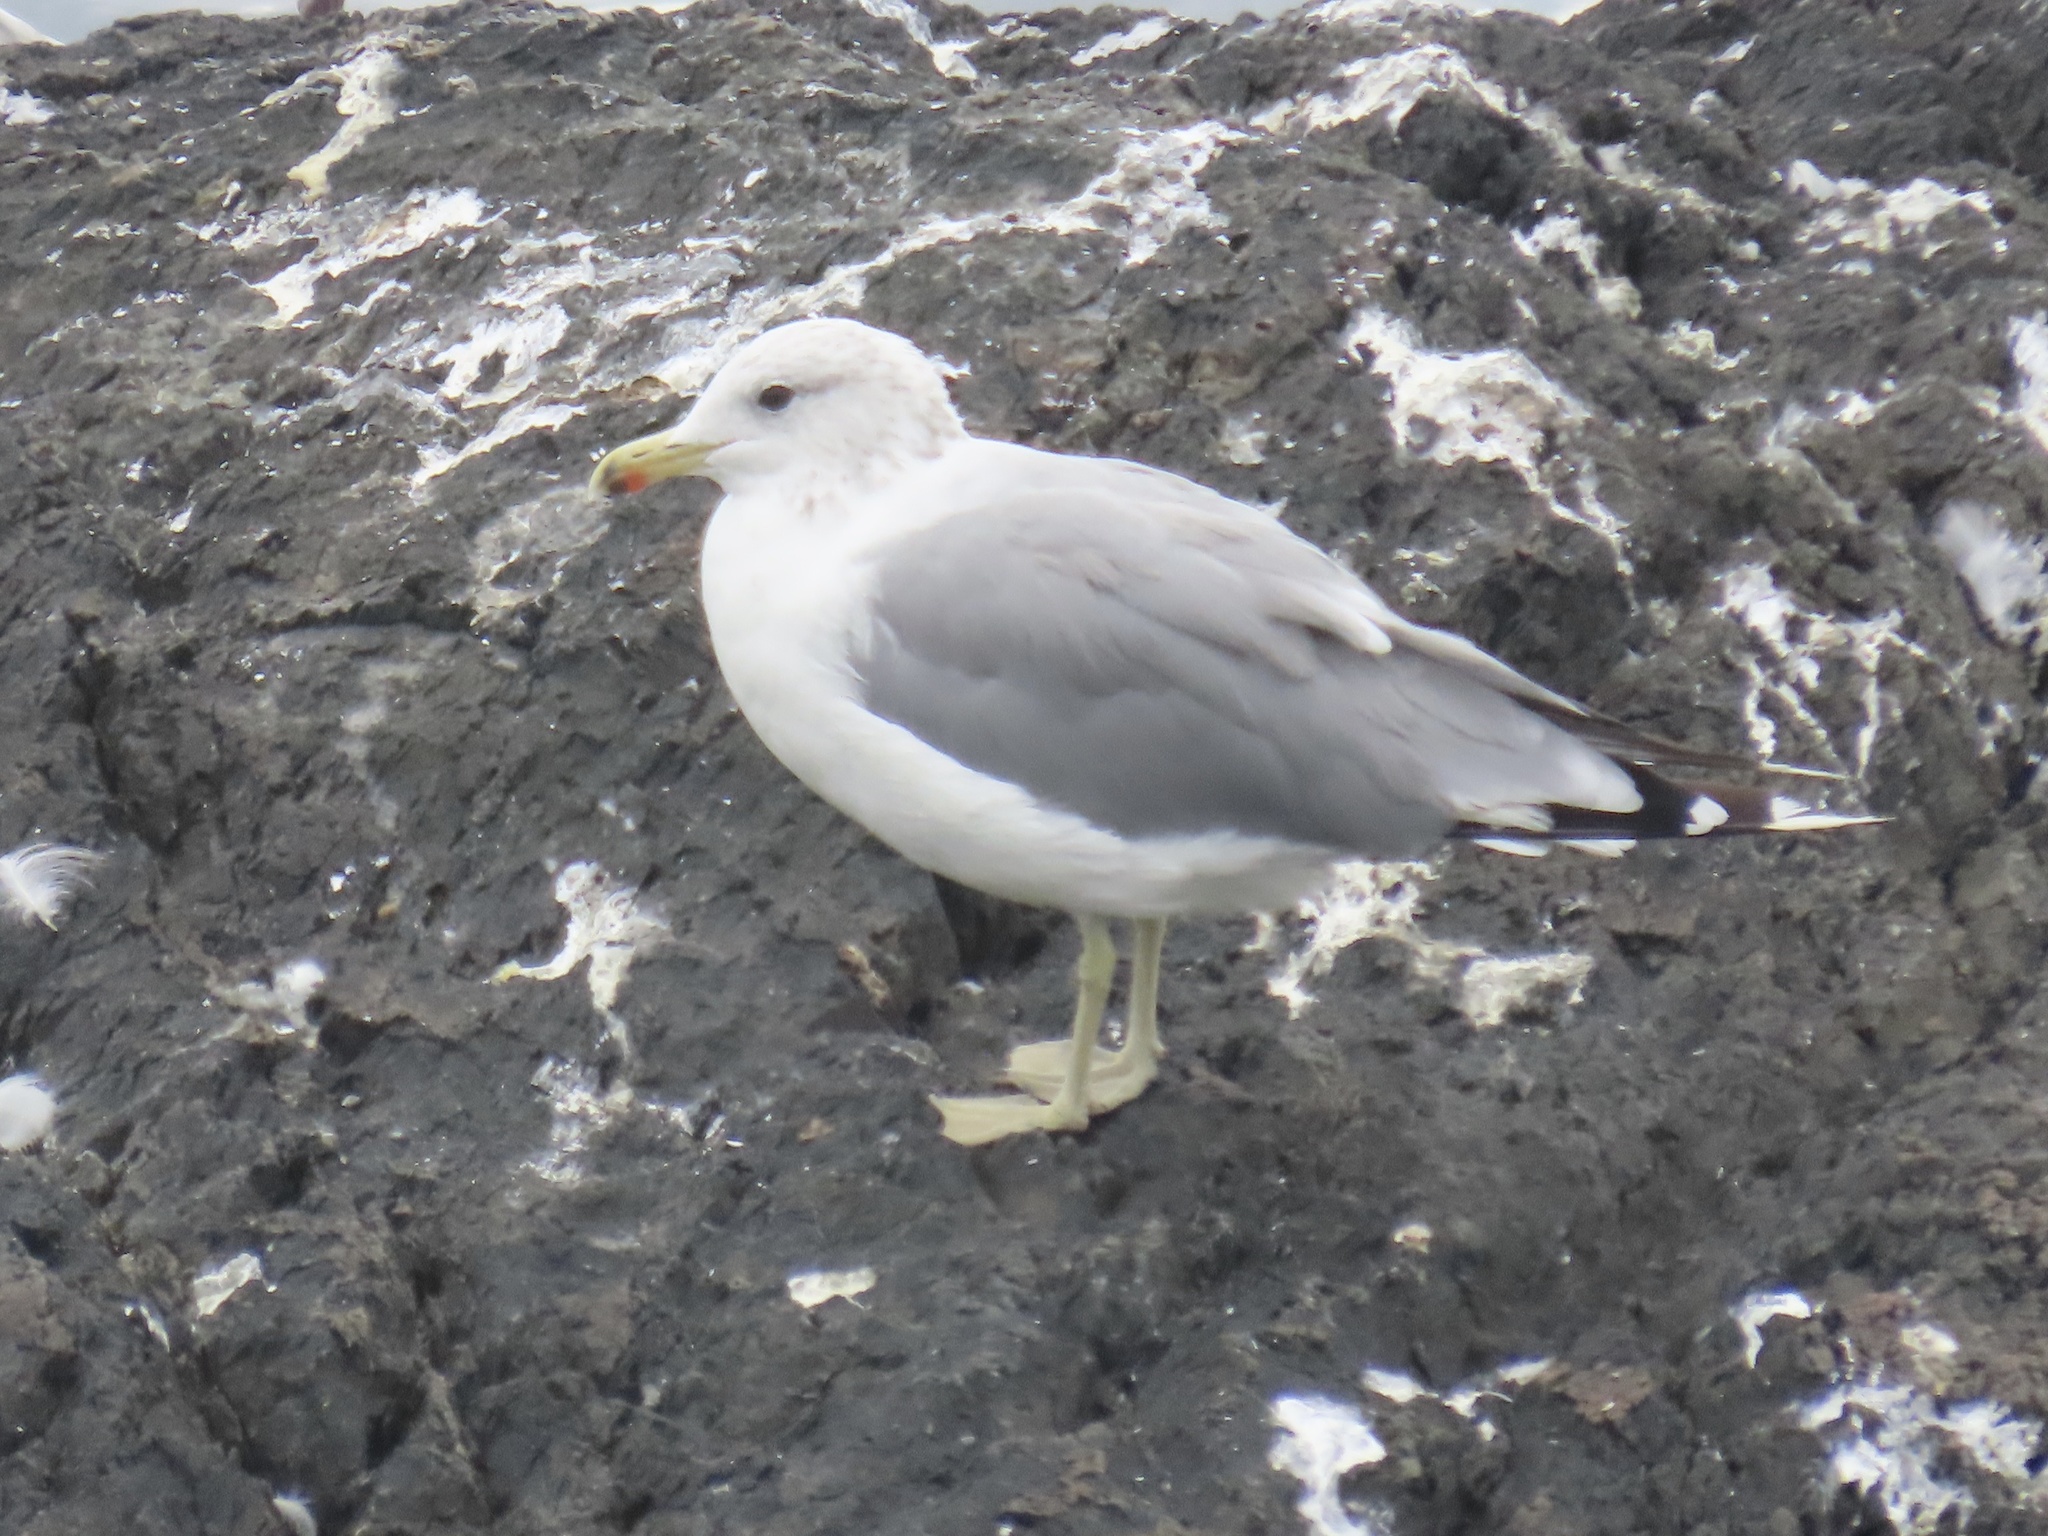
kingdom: Animalia
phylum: Chordata
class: Aves
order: Charadriiformes
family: Laridae
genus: Larus
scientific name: Larus californicus
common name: California gull
